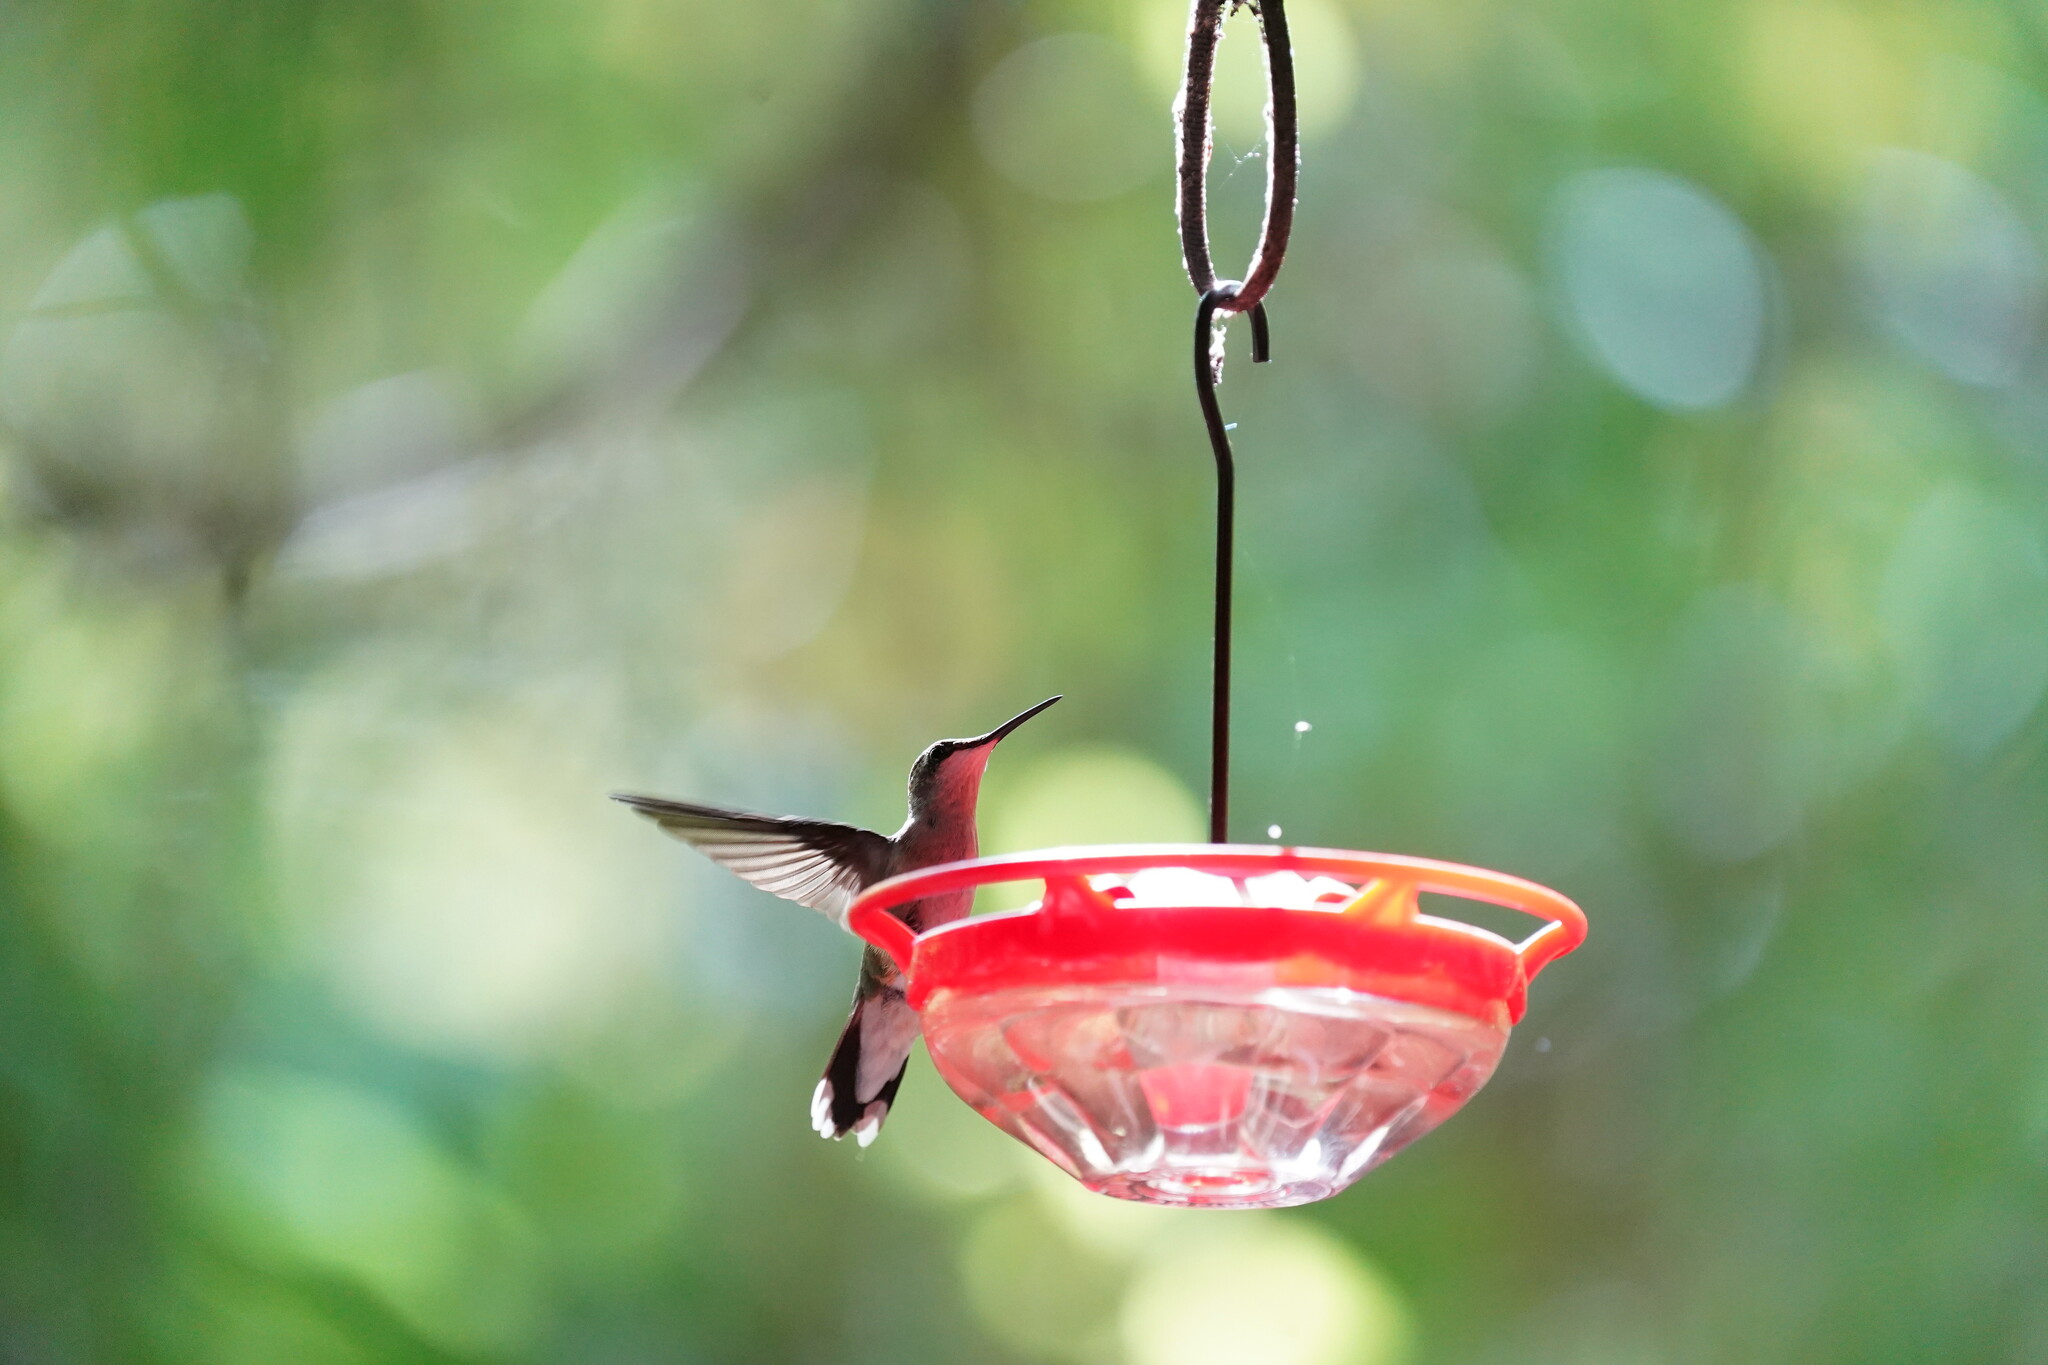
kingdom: Animalia
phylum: Chordata
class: Aves
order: Apodiformes
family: Trochilidae
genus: Archilochus
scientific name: Archilochus colubris
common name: Ruby-throated hummingbird
